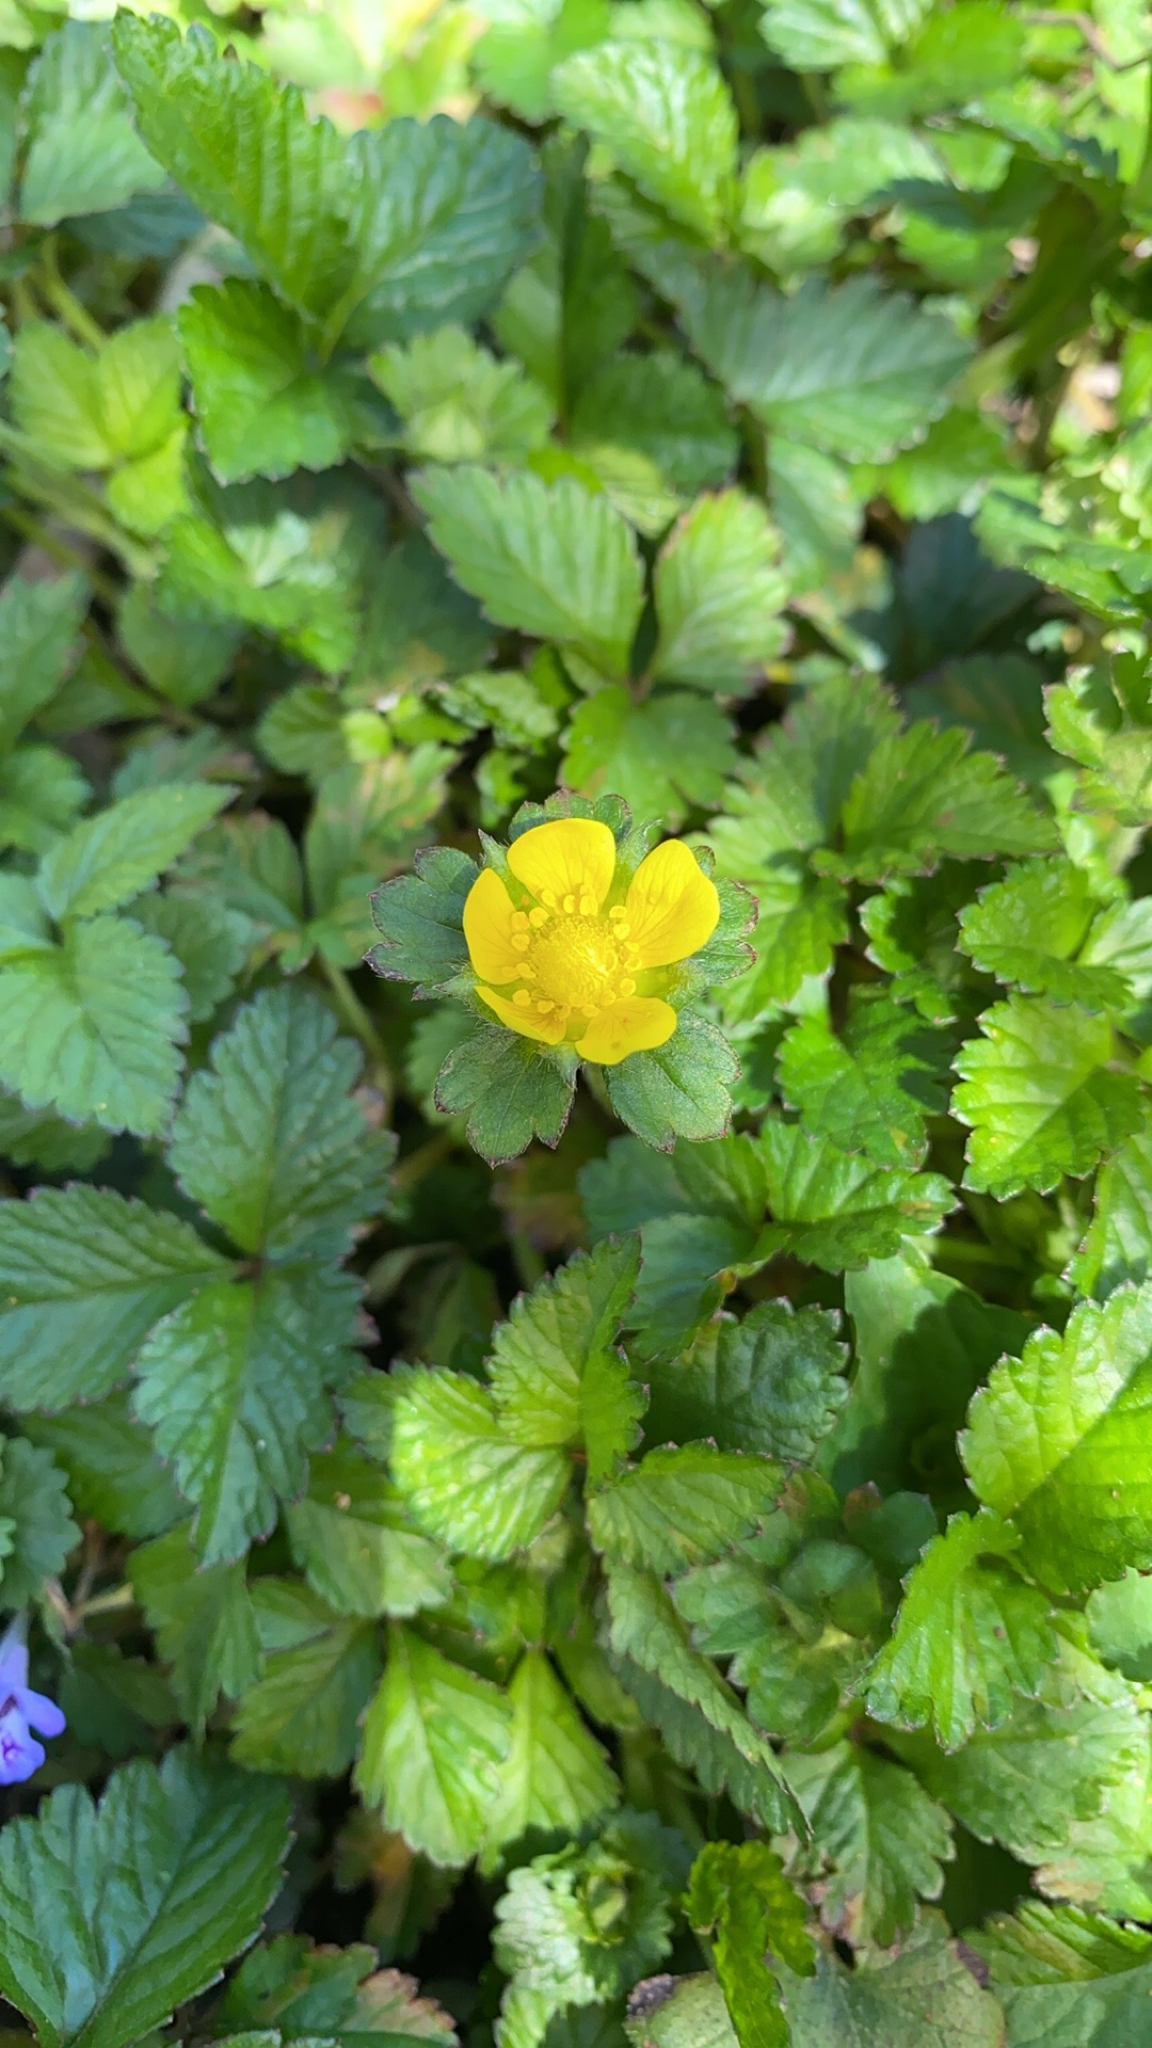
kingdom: Plantae
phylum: Tracheophyta
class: Magnoliopsida
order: Rosales
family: Rosaceae
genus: Potentilla
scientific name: Potentilla indica
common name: Yellow-flowered strawberry
